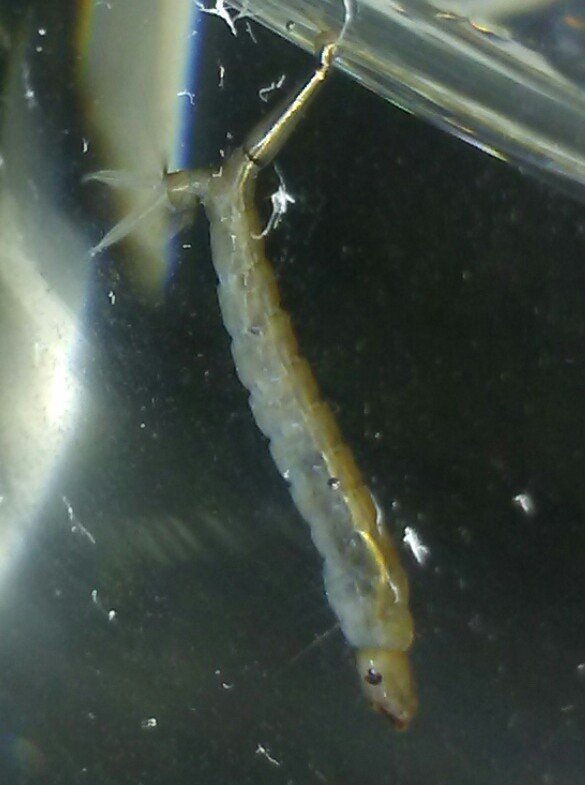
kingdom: Animalia
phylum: Arthropoda
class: Insecta
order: Diptera
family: Culicidae
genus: Psorophora
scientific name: Psorophora howardii
